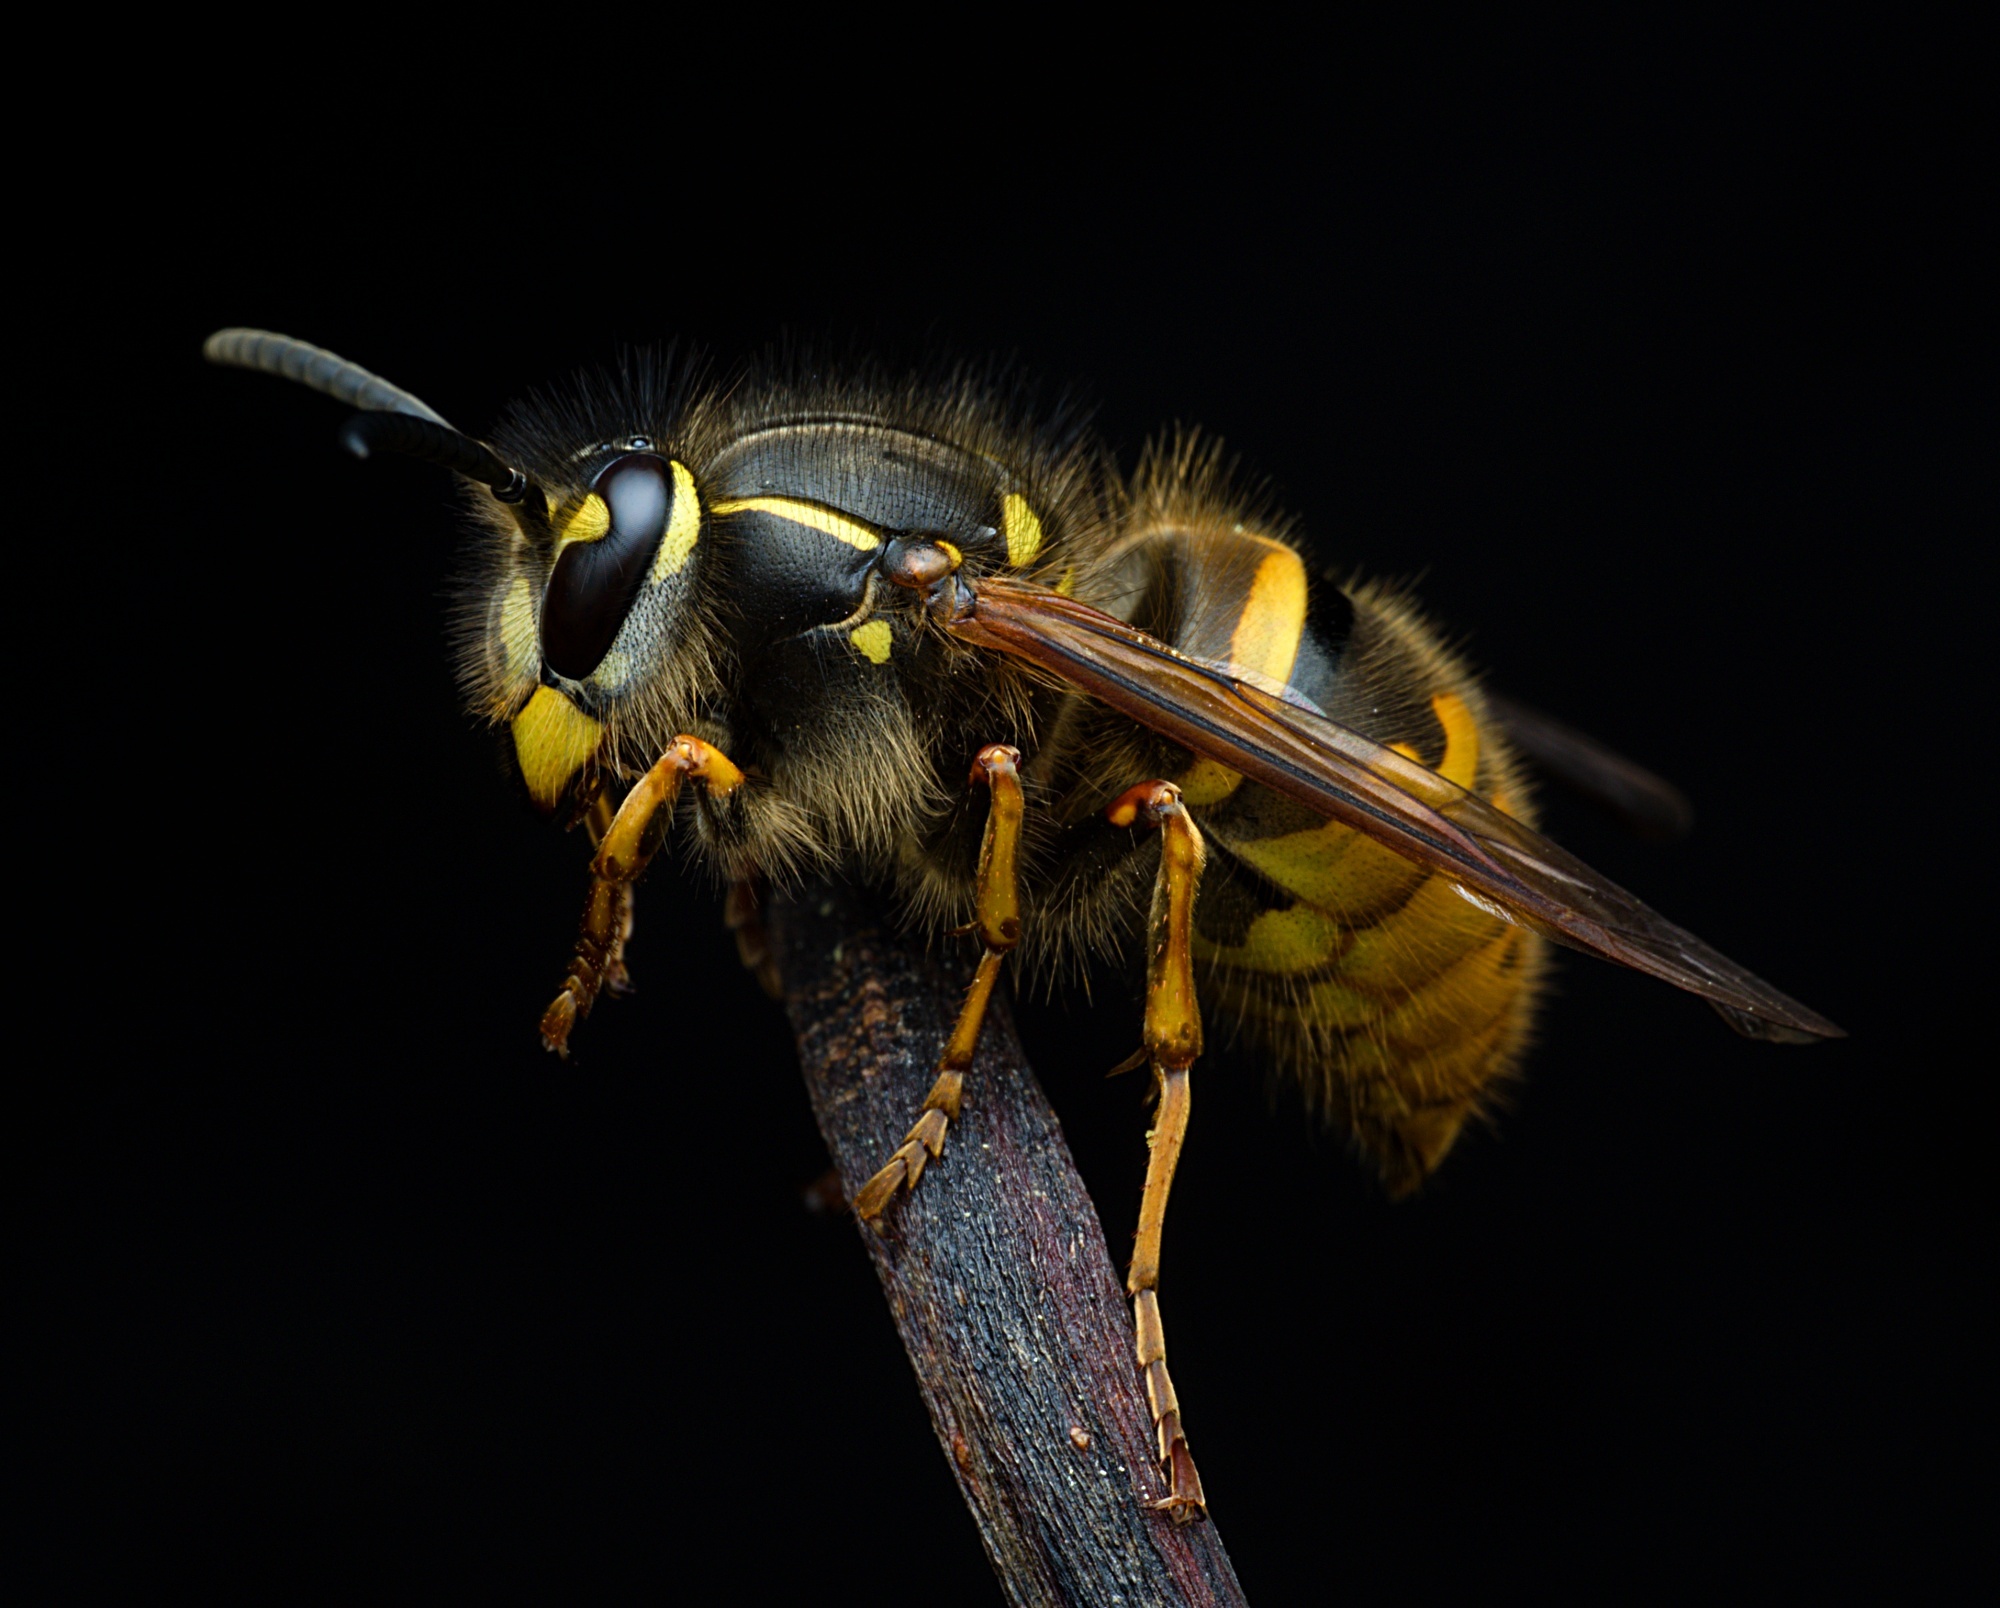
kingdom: Animalia
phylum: Arthropoda
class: Insecta
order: Hymenoptera
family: Vespidae
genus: Vespula
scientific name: Vespula vulgaris
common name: Common wasp
